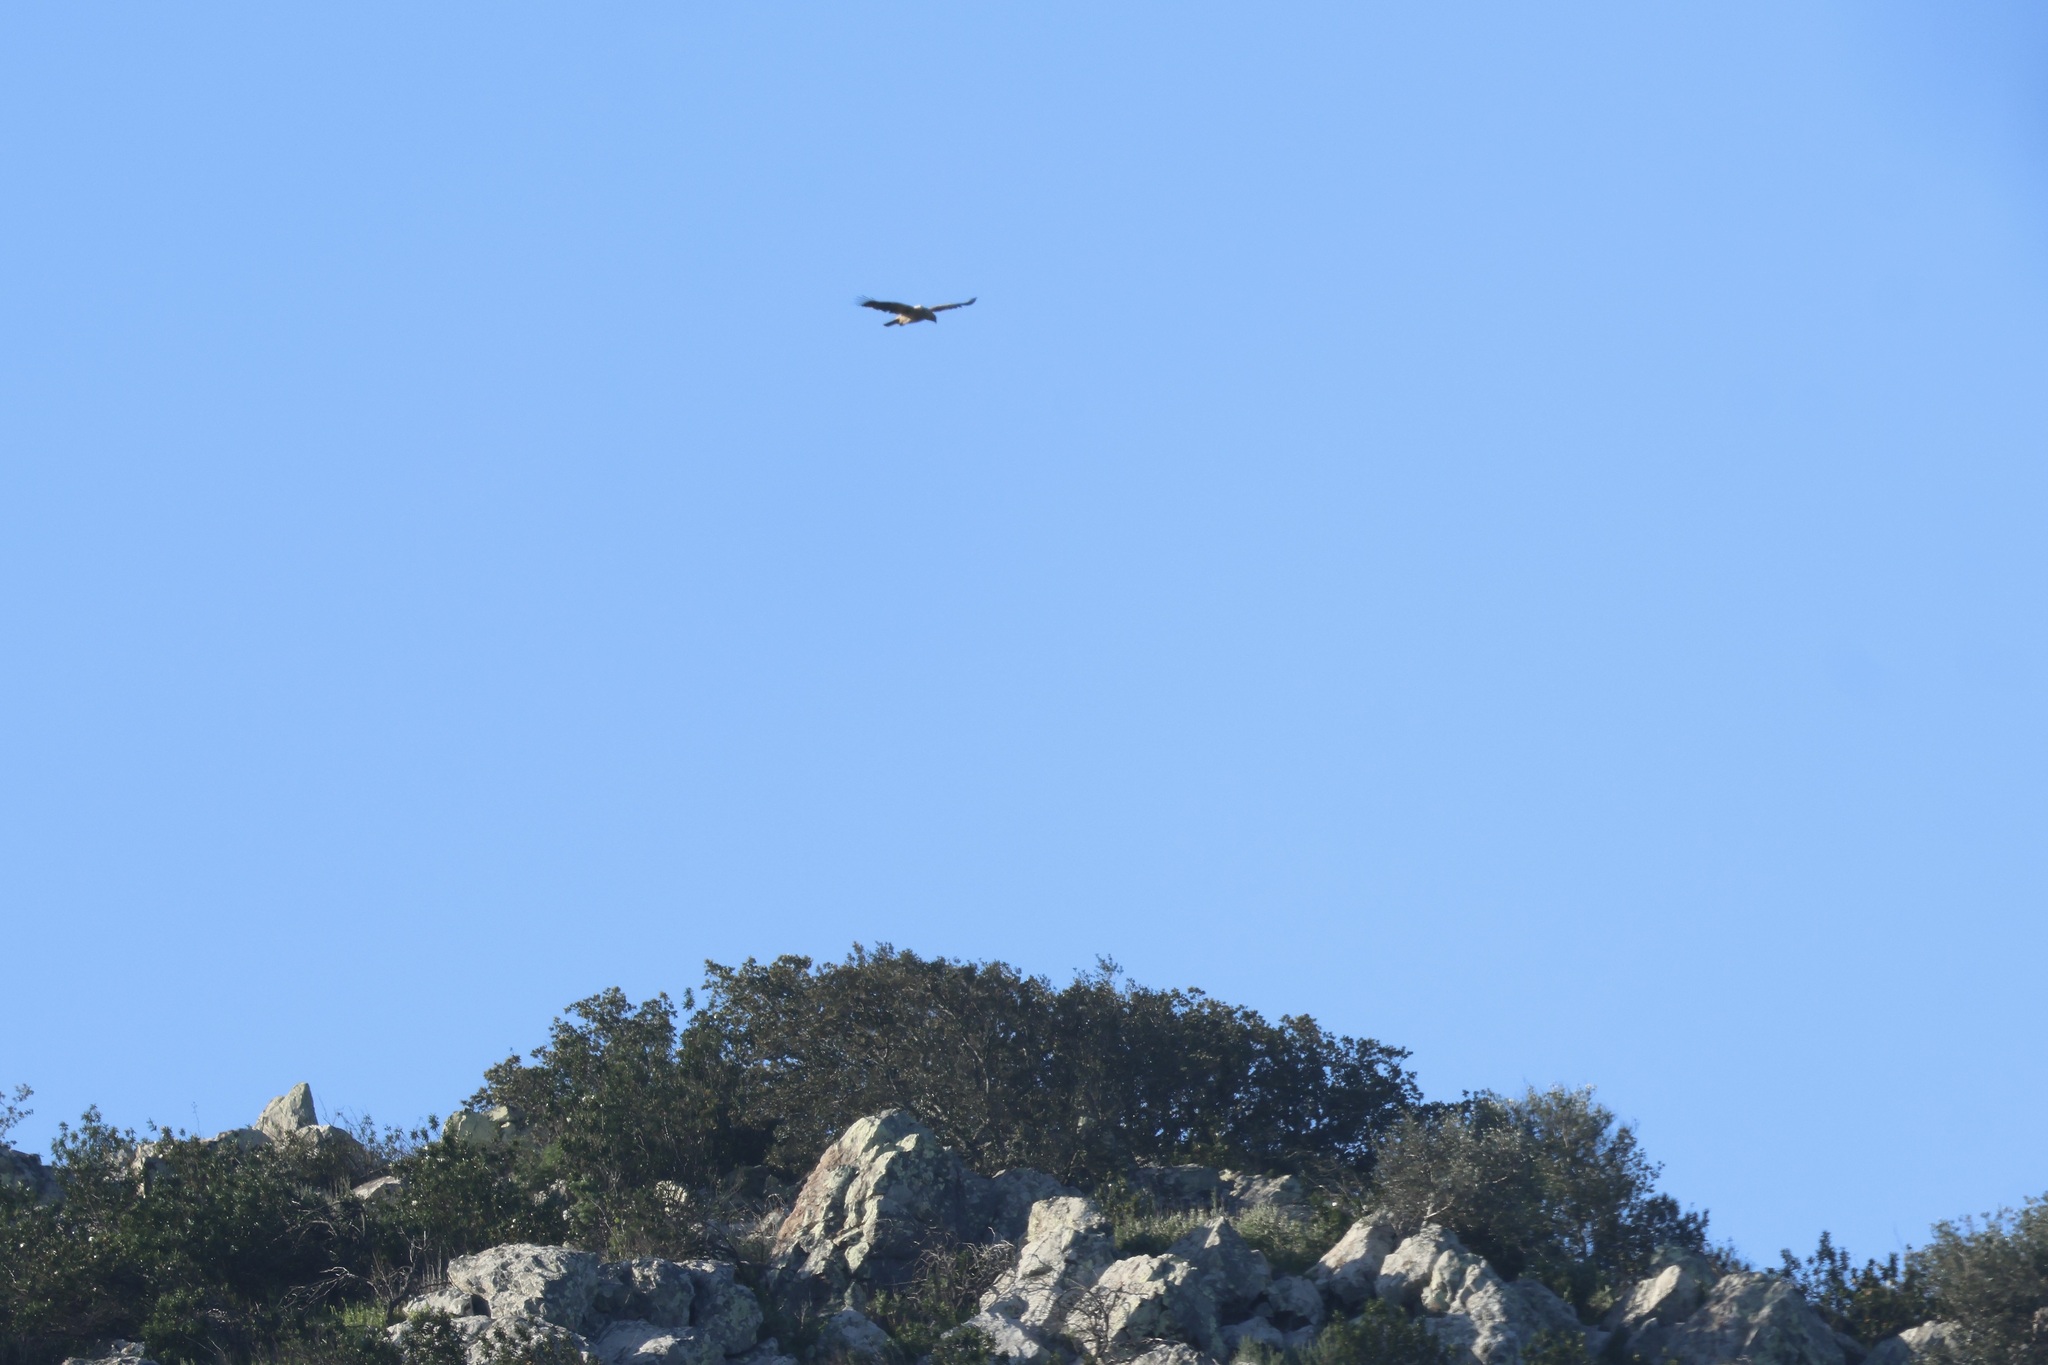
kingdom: Animalia
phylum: Chordata
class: Aves
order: Accipitriformes
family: Accipitridae
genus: Aquila
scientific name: Aquila adalberti
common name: Spanish imperial eagle
